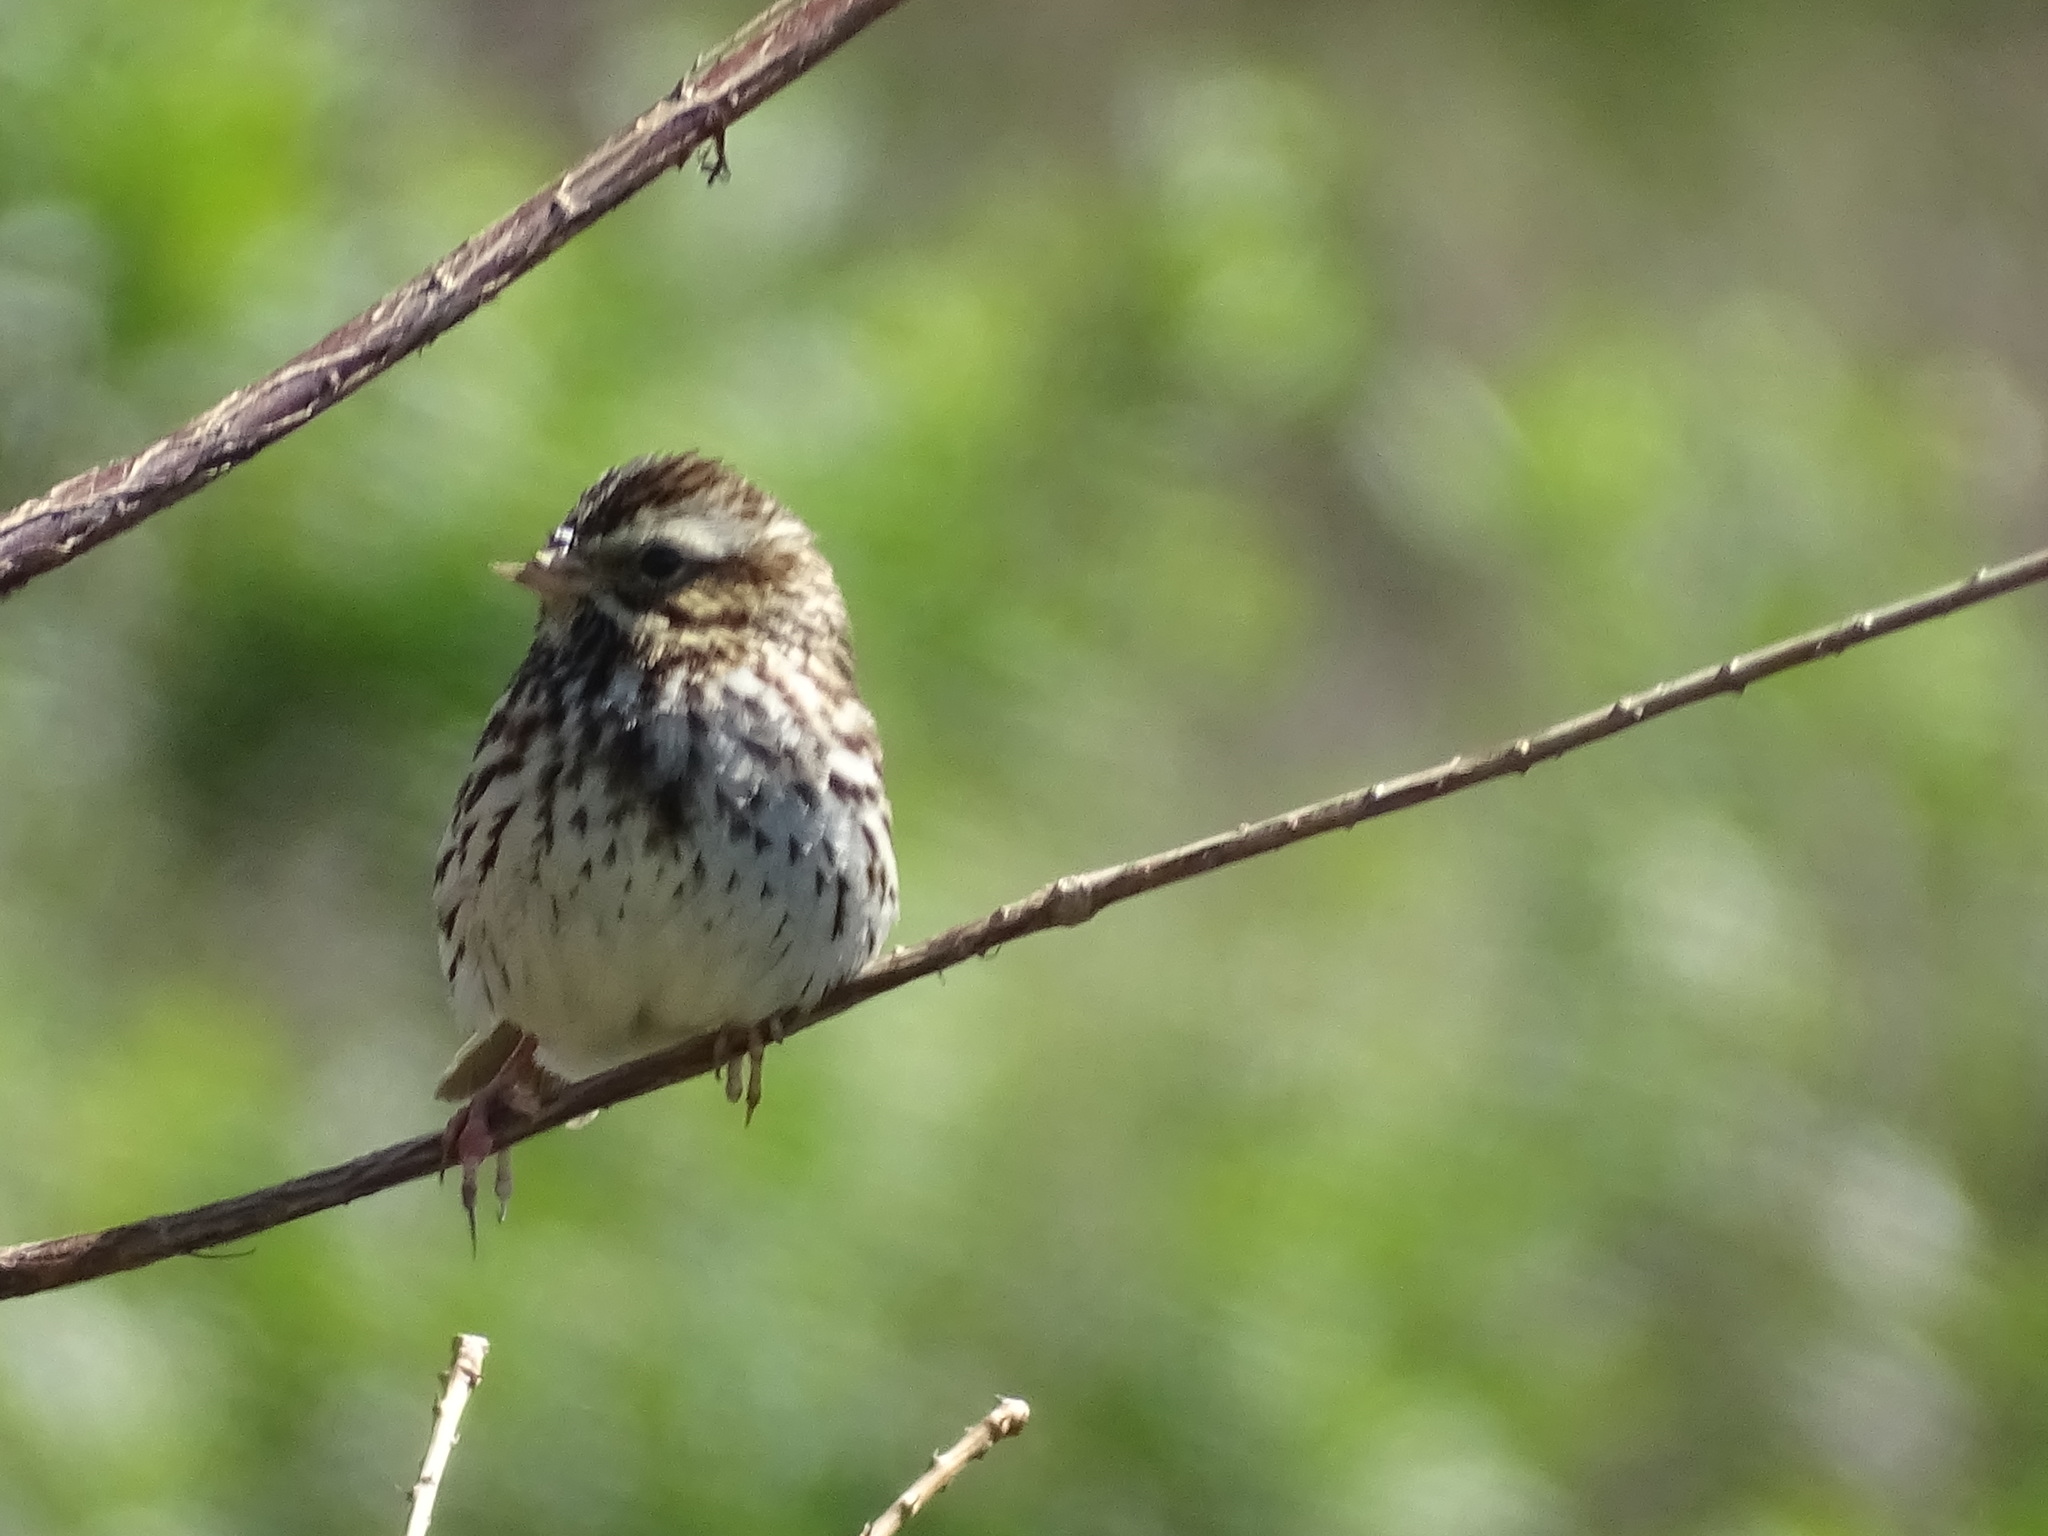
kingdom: Animalia
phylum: Chordata
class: Aves
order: Passeriformes
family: Passerellidae
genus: Passerculus
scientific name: Passerculus sandwichensis
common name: Savannah sparrow
